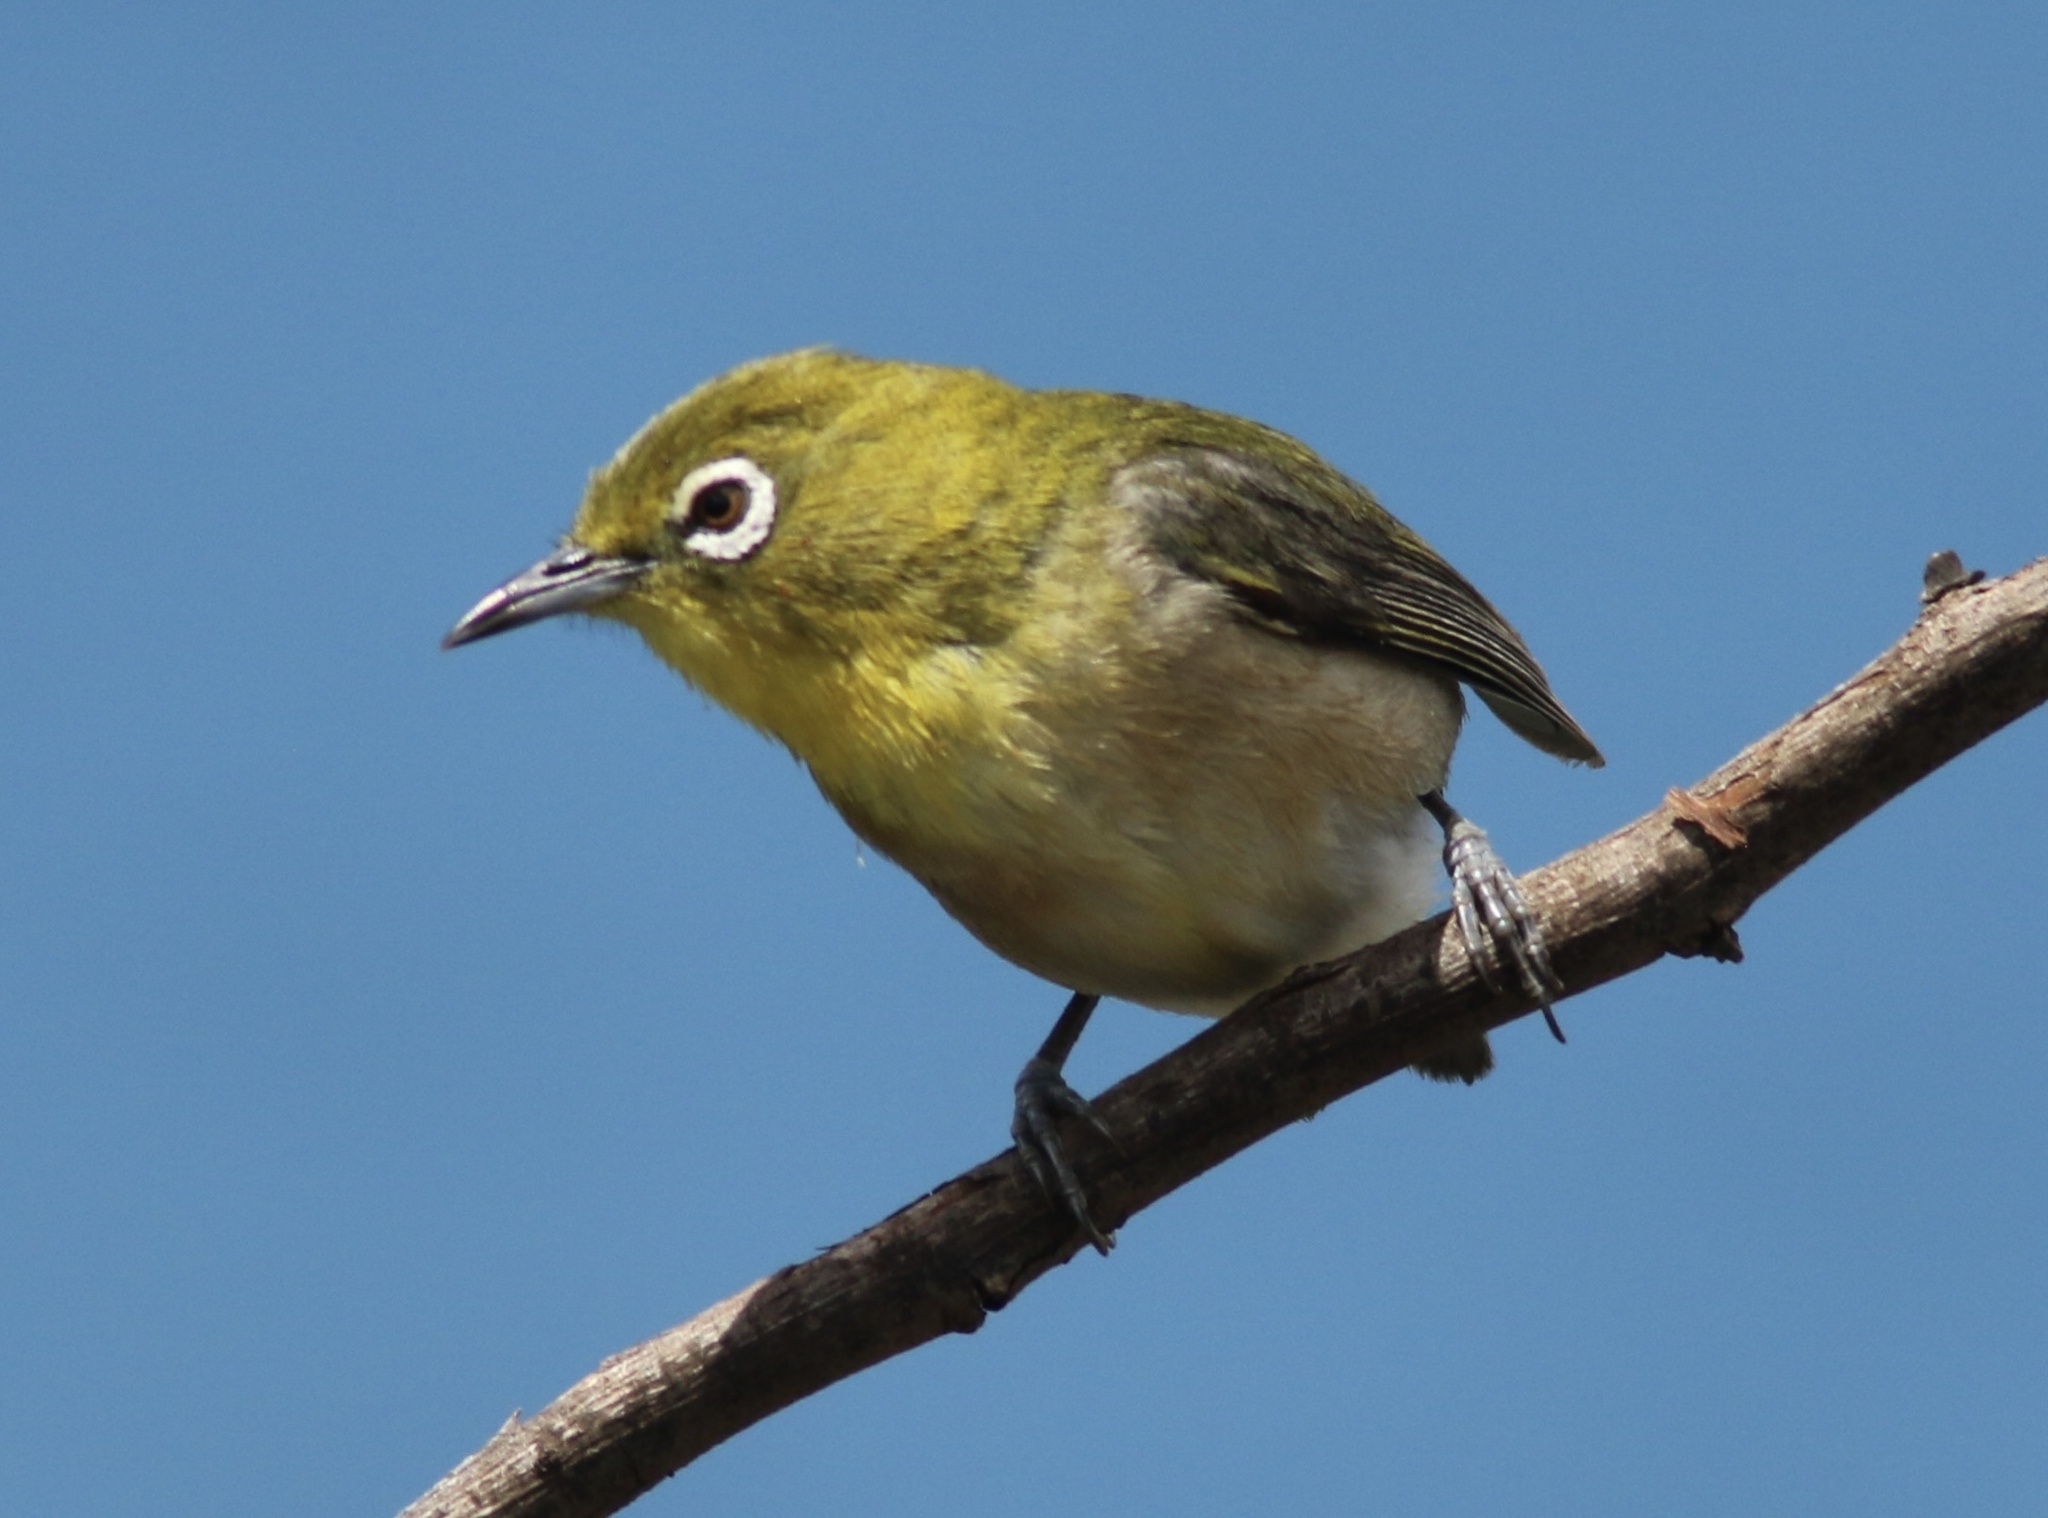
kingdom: Animalia
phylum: Chordata
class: Aves
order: Passeriformes
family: Zosteropidae
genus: Zosterops
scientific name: Zosterops japonicus
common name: Japanese white-eye
